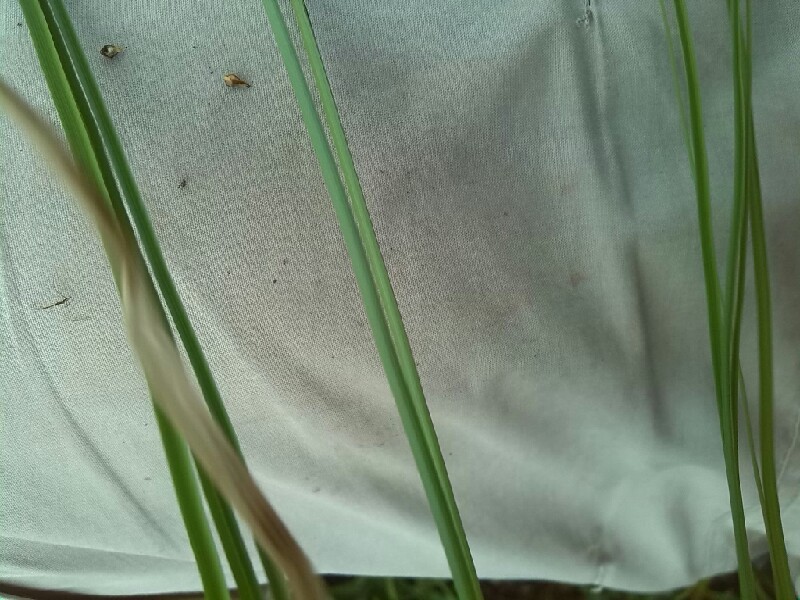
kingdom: Plantae
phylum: Tracheophyta
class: Liliopsida
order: Poales
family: Cyperaceae
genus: Carex
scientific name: Carex appropinquata
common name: Fibrous tussock-sedge
